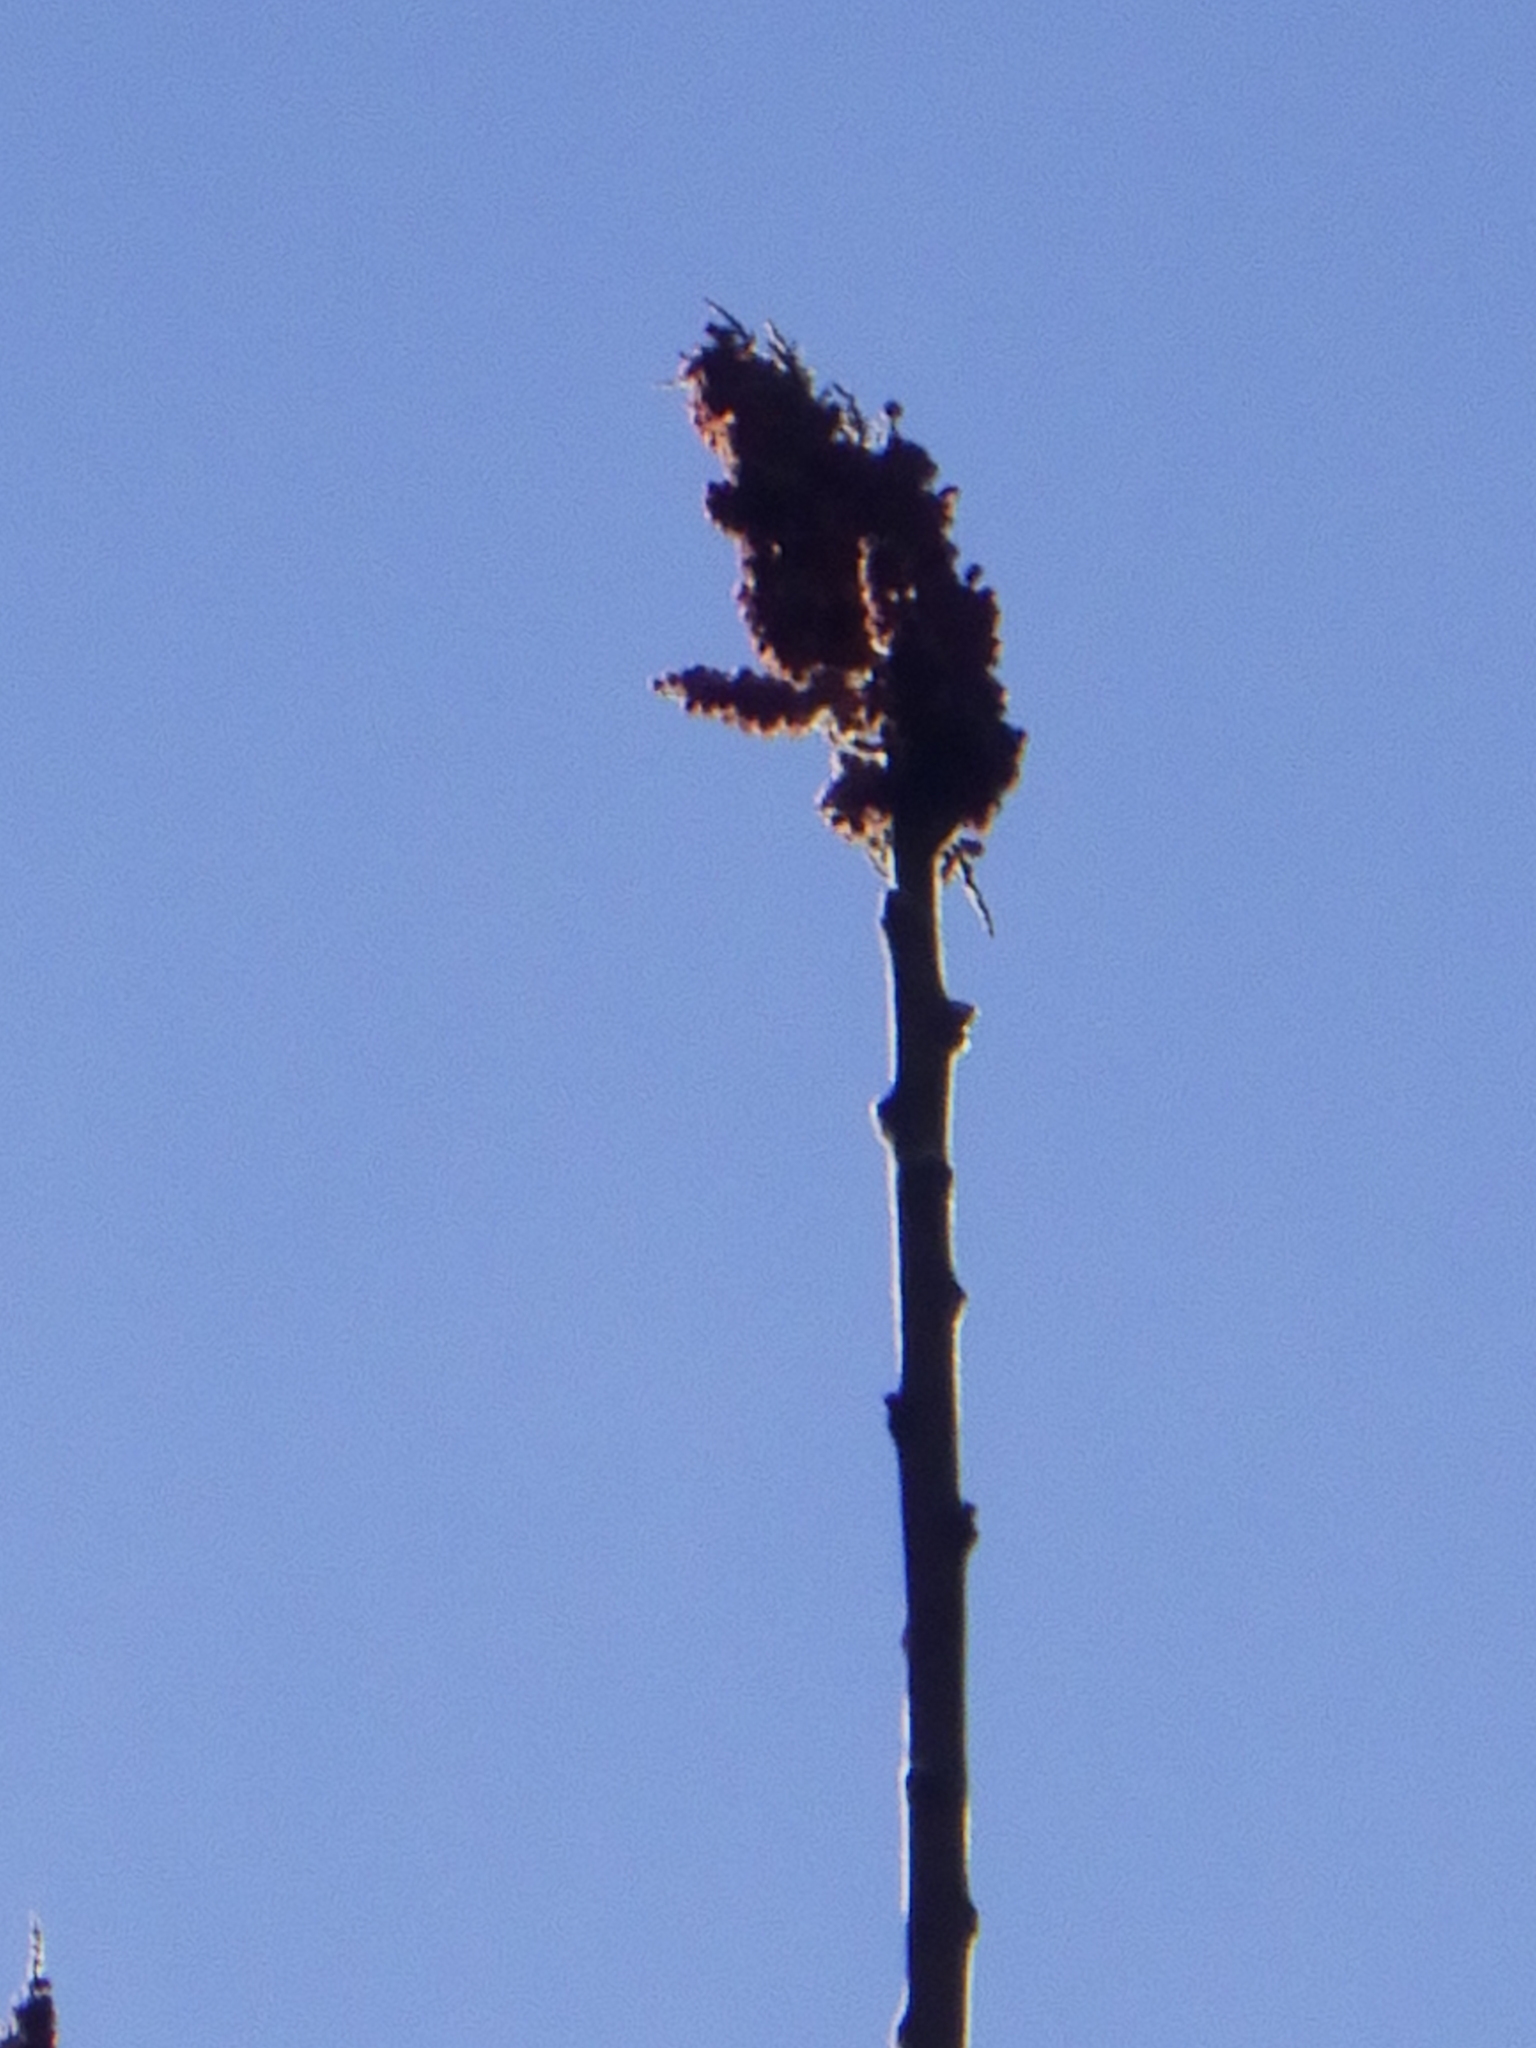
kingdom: Plantae
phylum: Tracheophyta
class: Magnoliopsida
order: Sapindales
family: Anacardiaceae
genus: Rhus
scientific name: Rhus typhina
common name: Staghorn sumac
